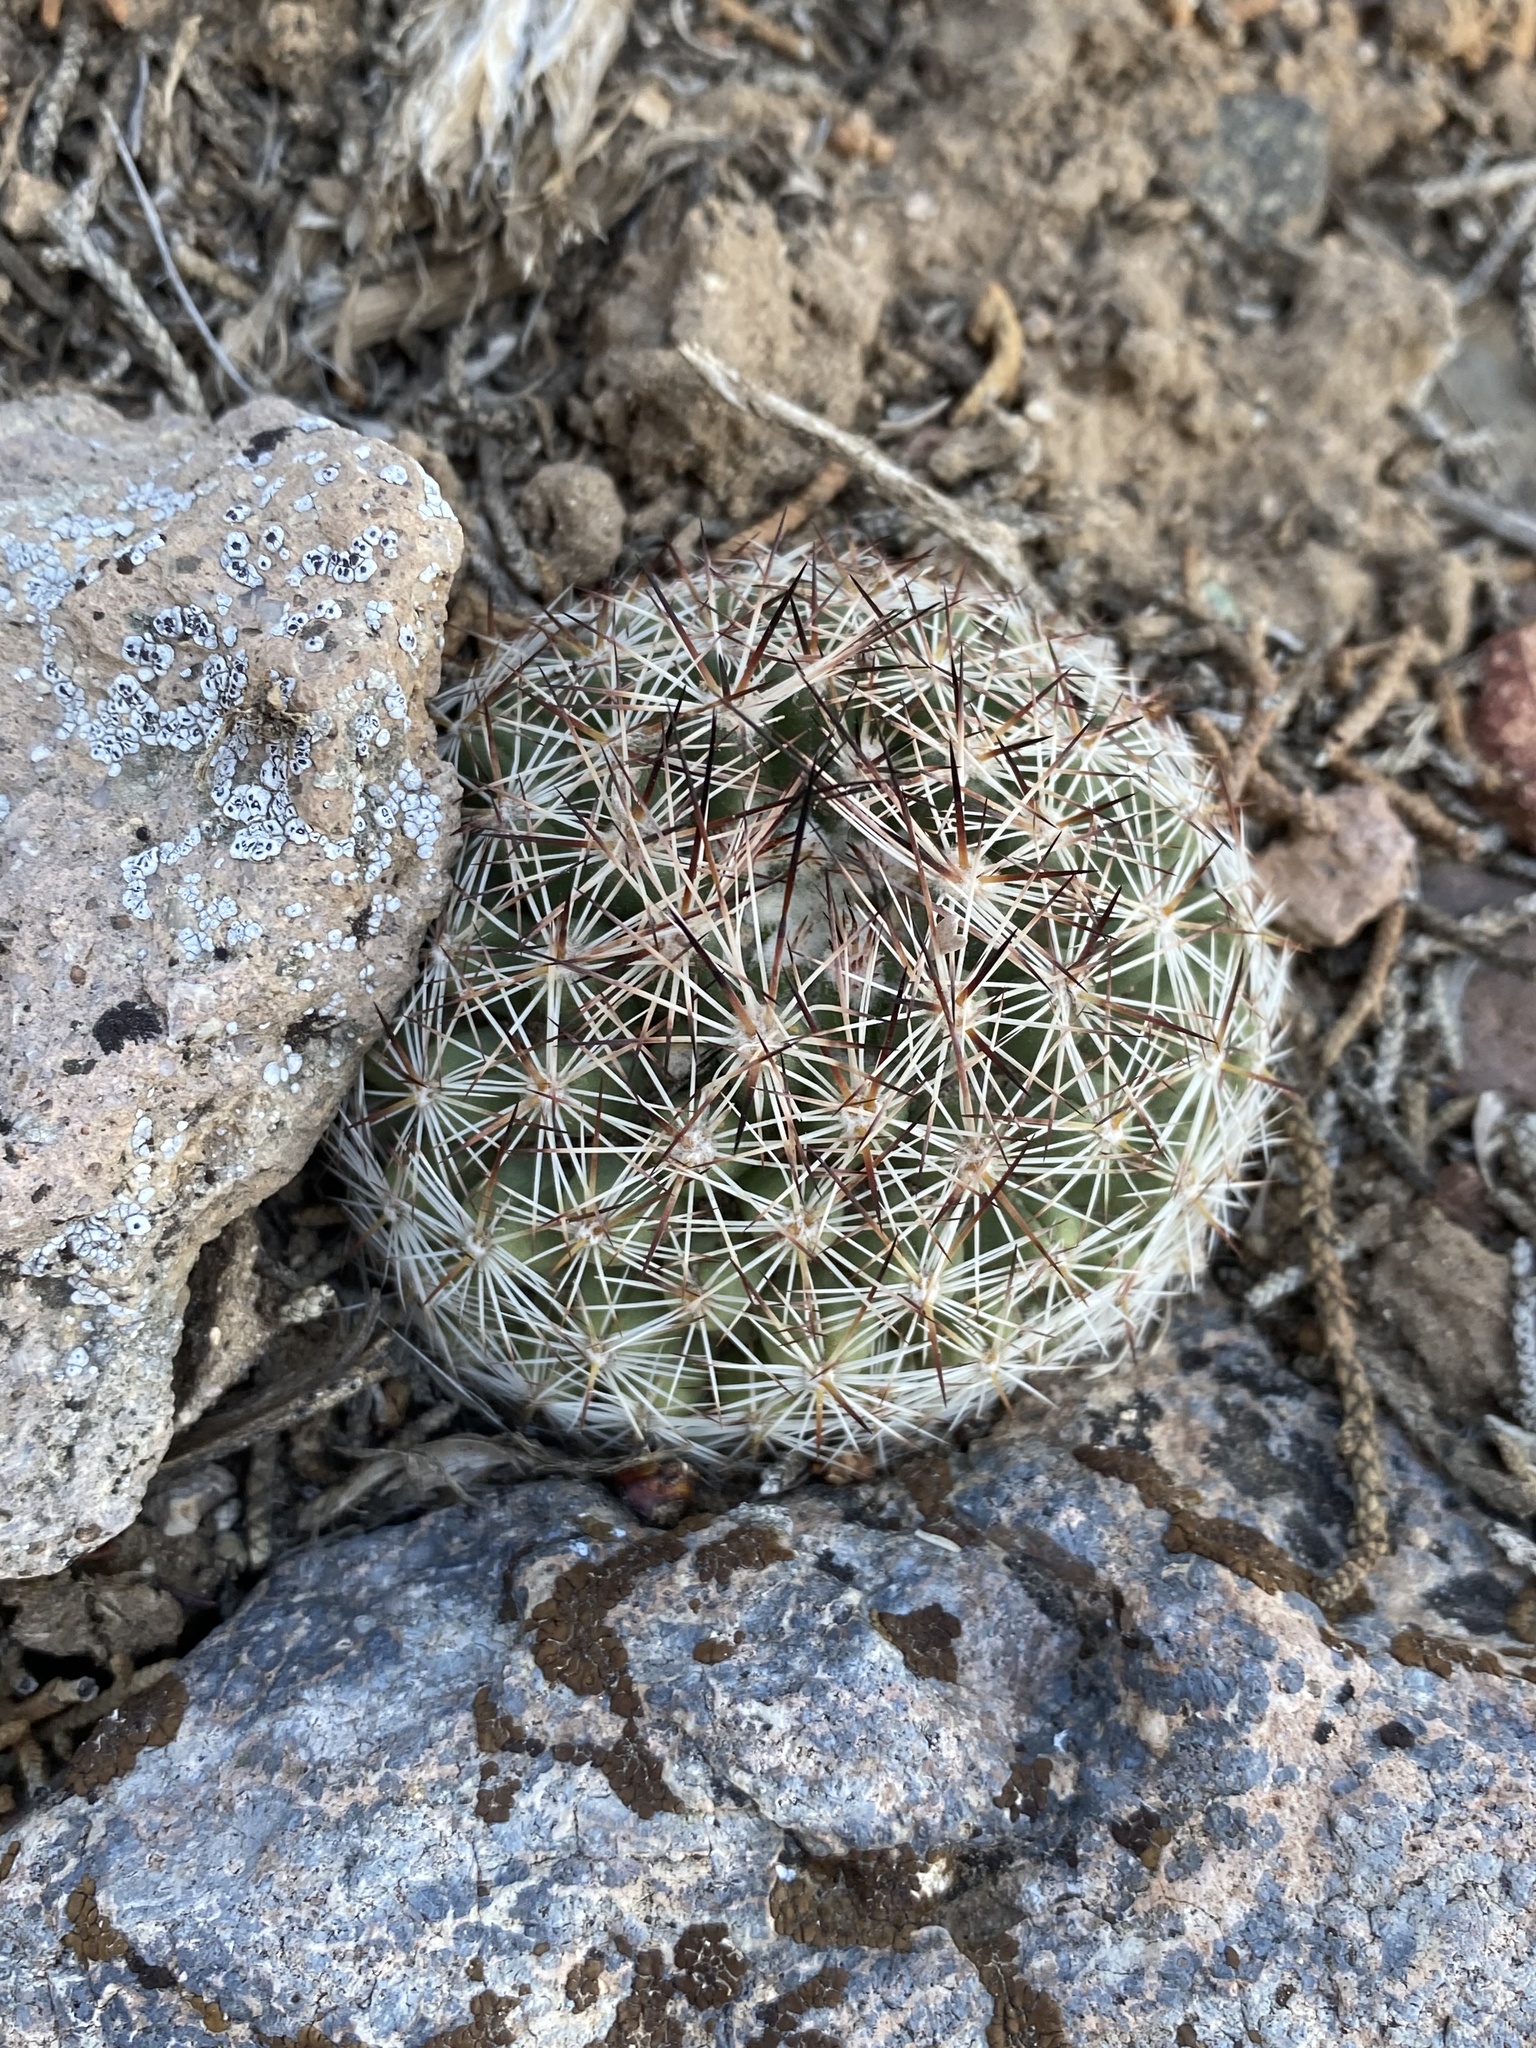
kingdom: Plantae
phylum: Tracheophyta
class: Magnoliopsida
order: Caryophyllales
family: Cactaceae
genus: Pelecyphora
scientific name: Pelecyphora vivipara
